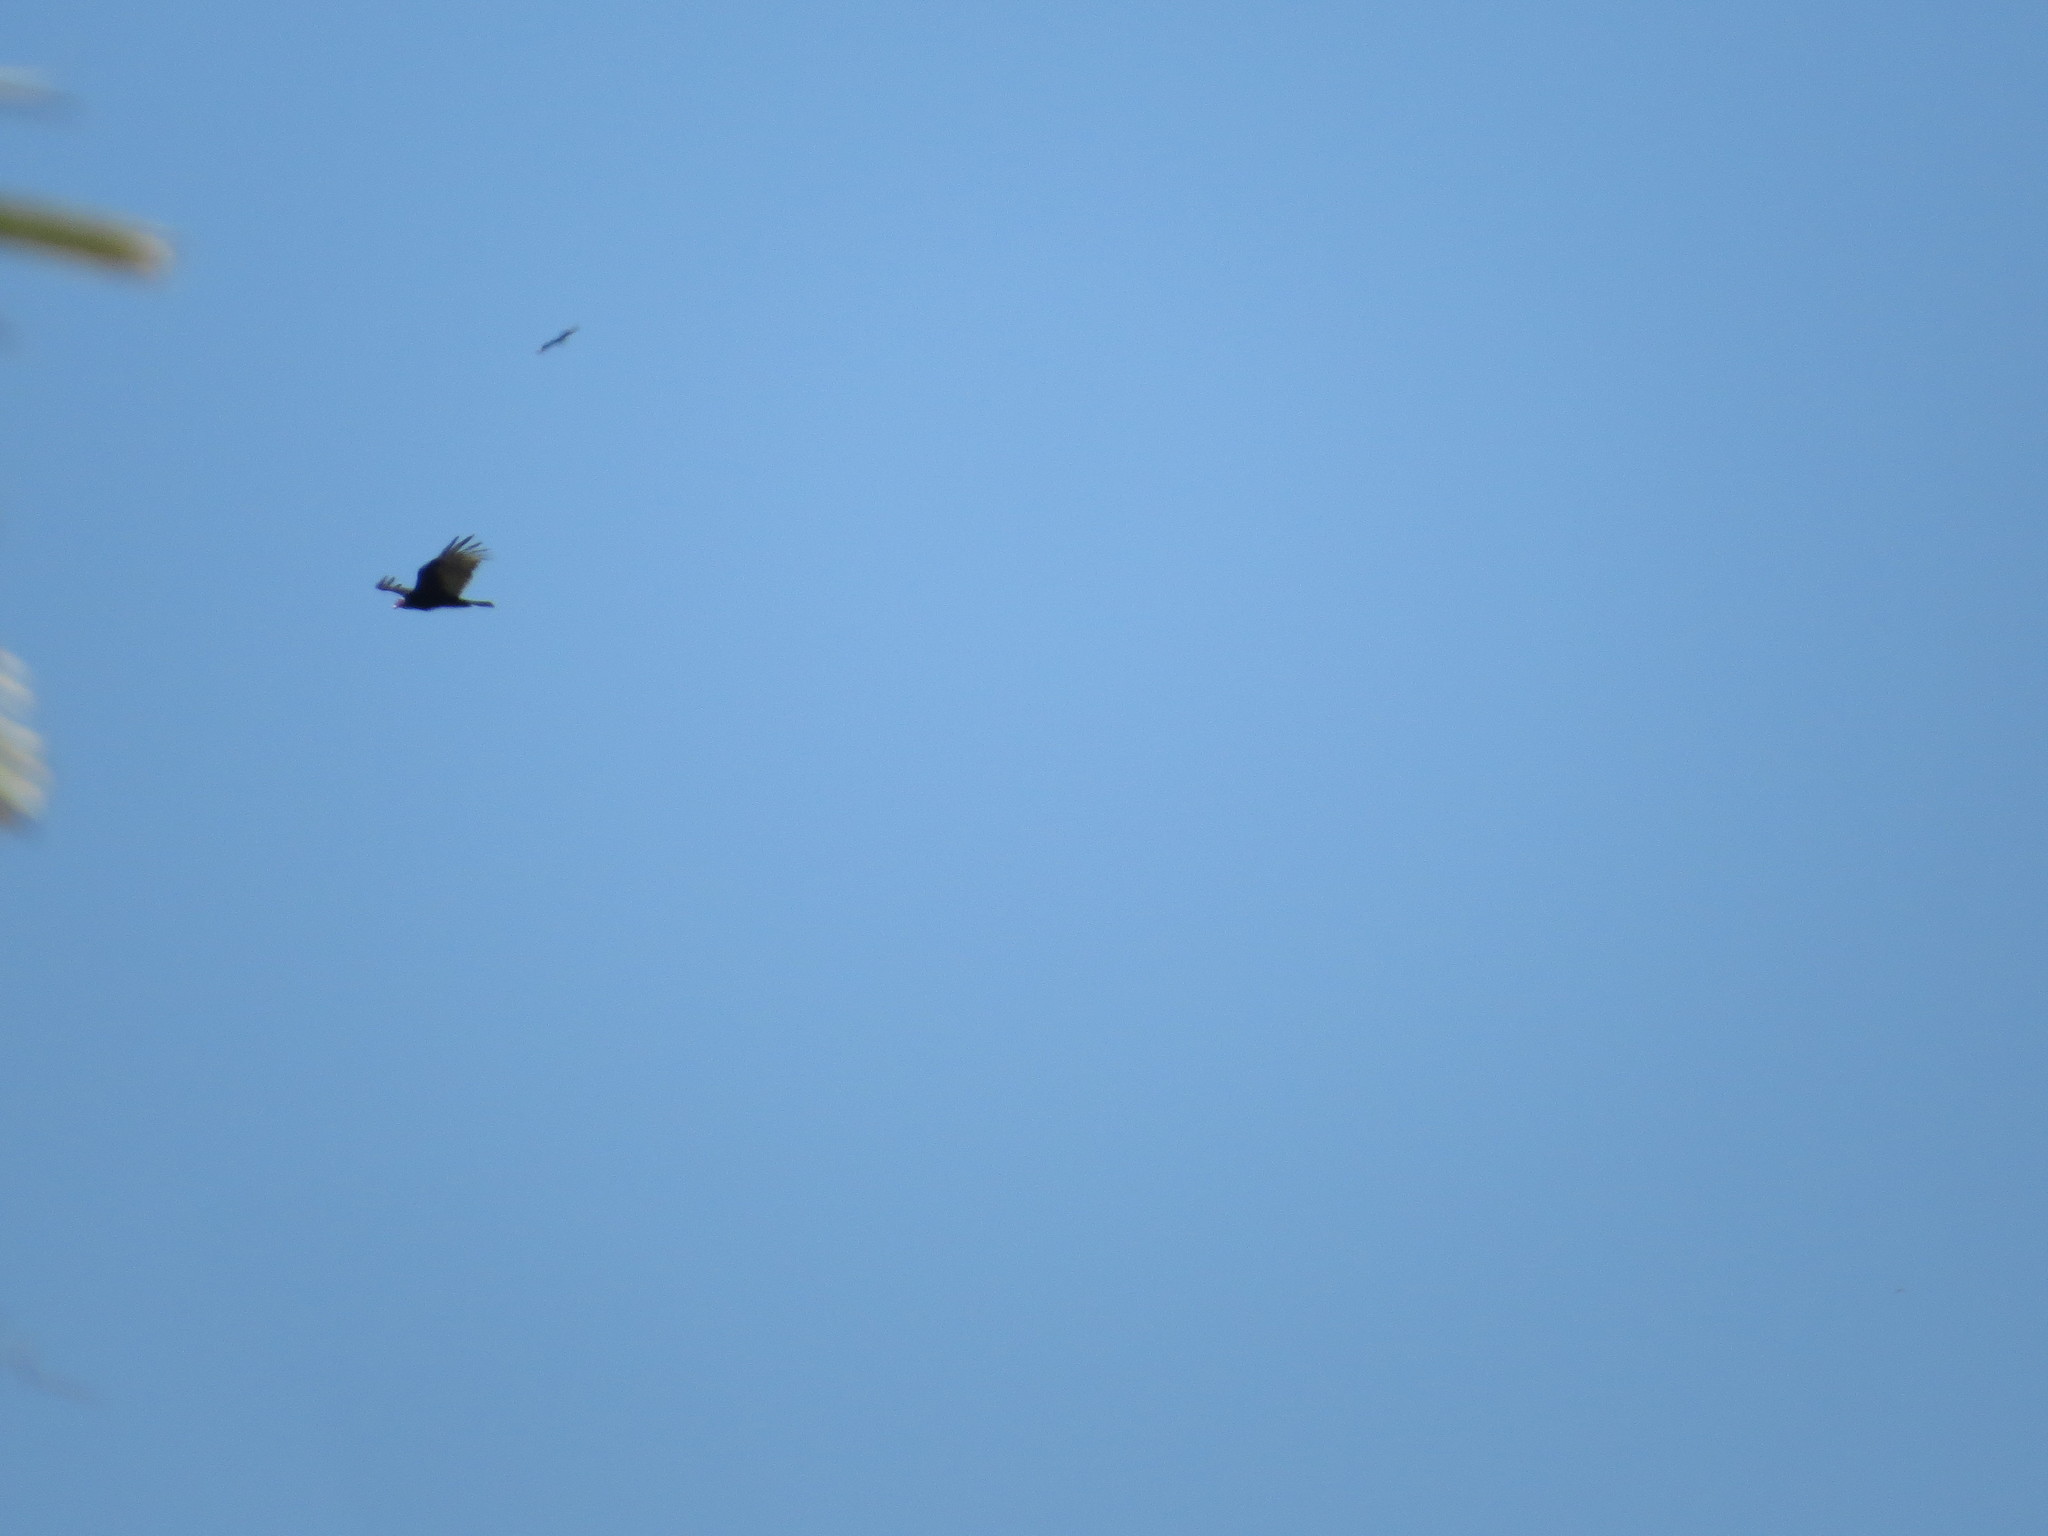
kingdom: Animalia
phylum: Chordata
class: Aves
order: Accipitriformes
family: Cathartidae
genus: Cathartes
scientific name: Cathartes aura
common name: Turkey vulture
